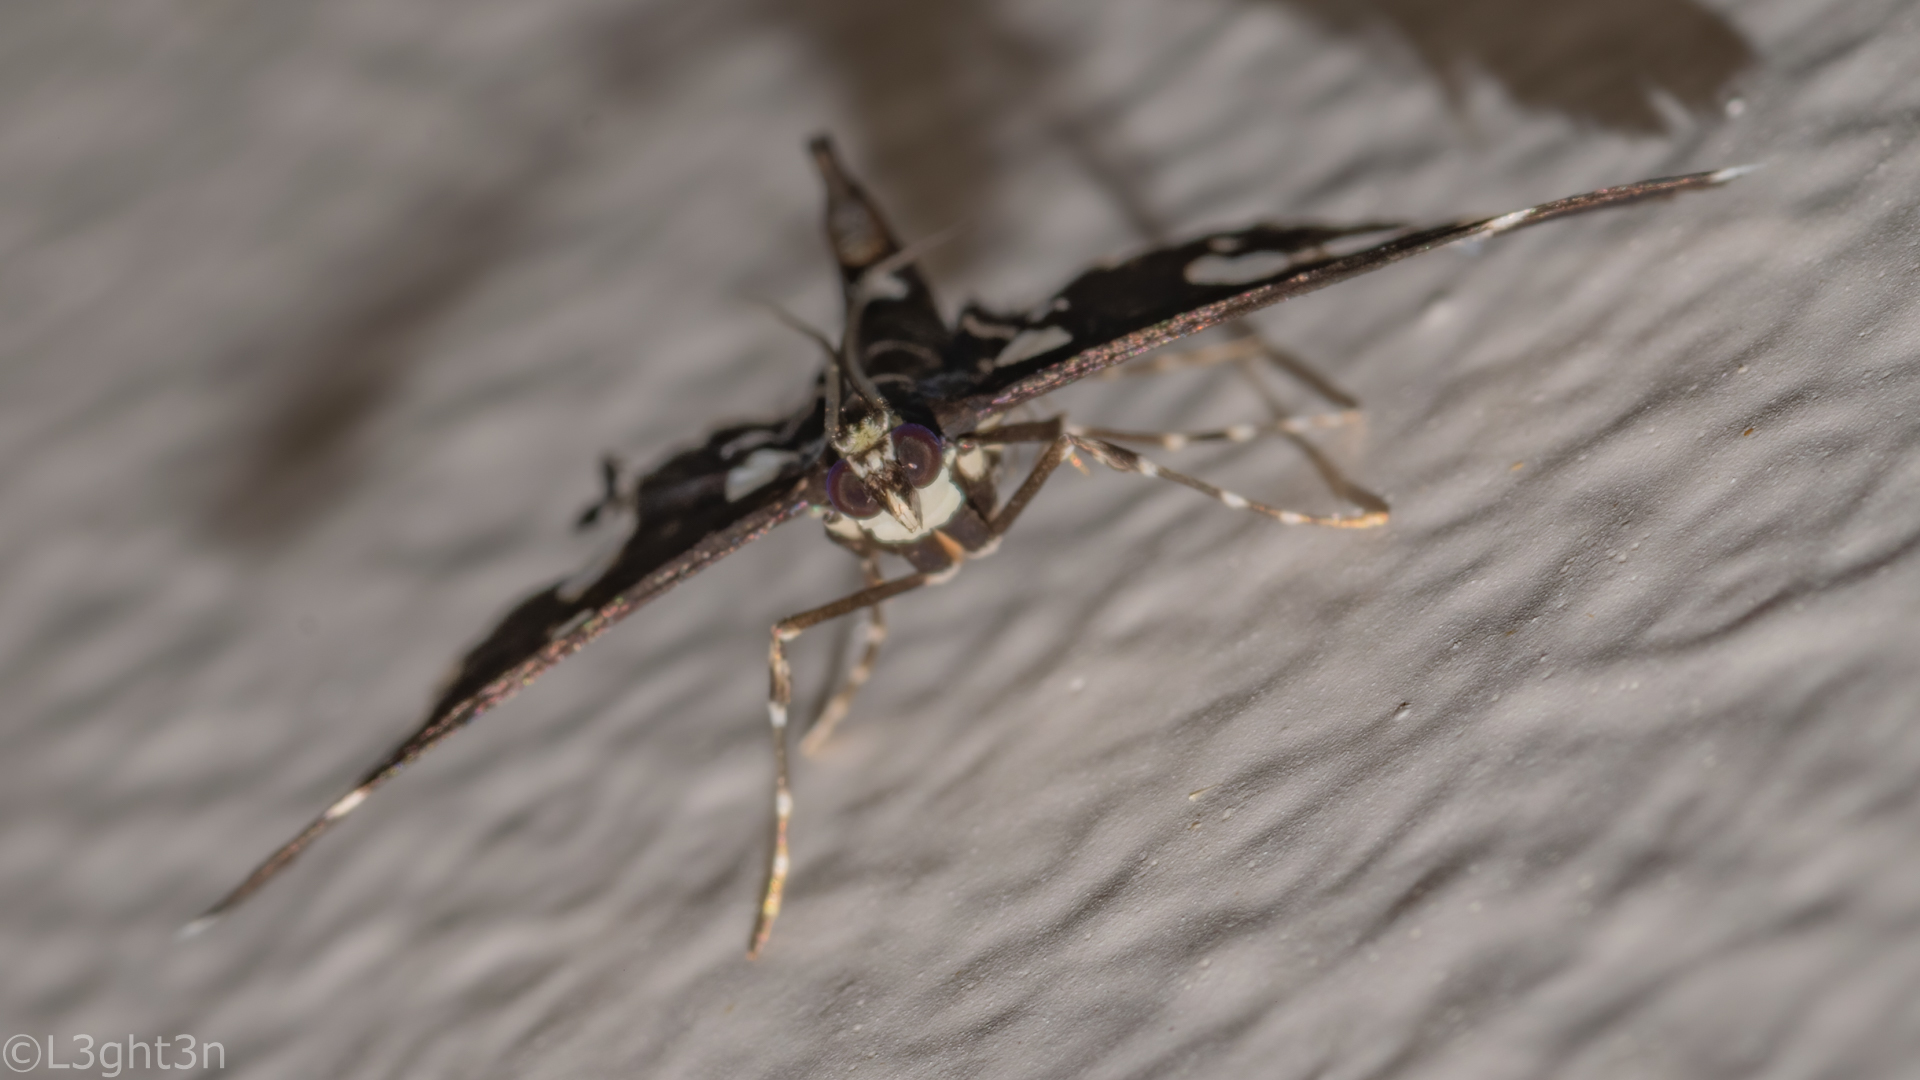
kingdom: Animalia
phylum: Arthropoda
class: Insecta
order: Lepidoptera
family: Crambidae
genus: Bocchoris
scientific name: Bocchoris inspersalis
